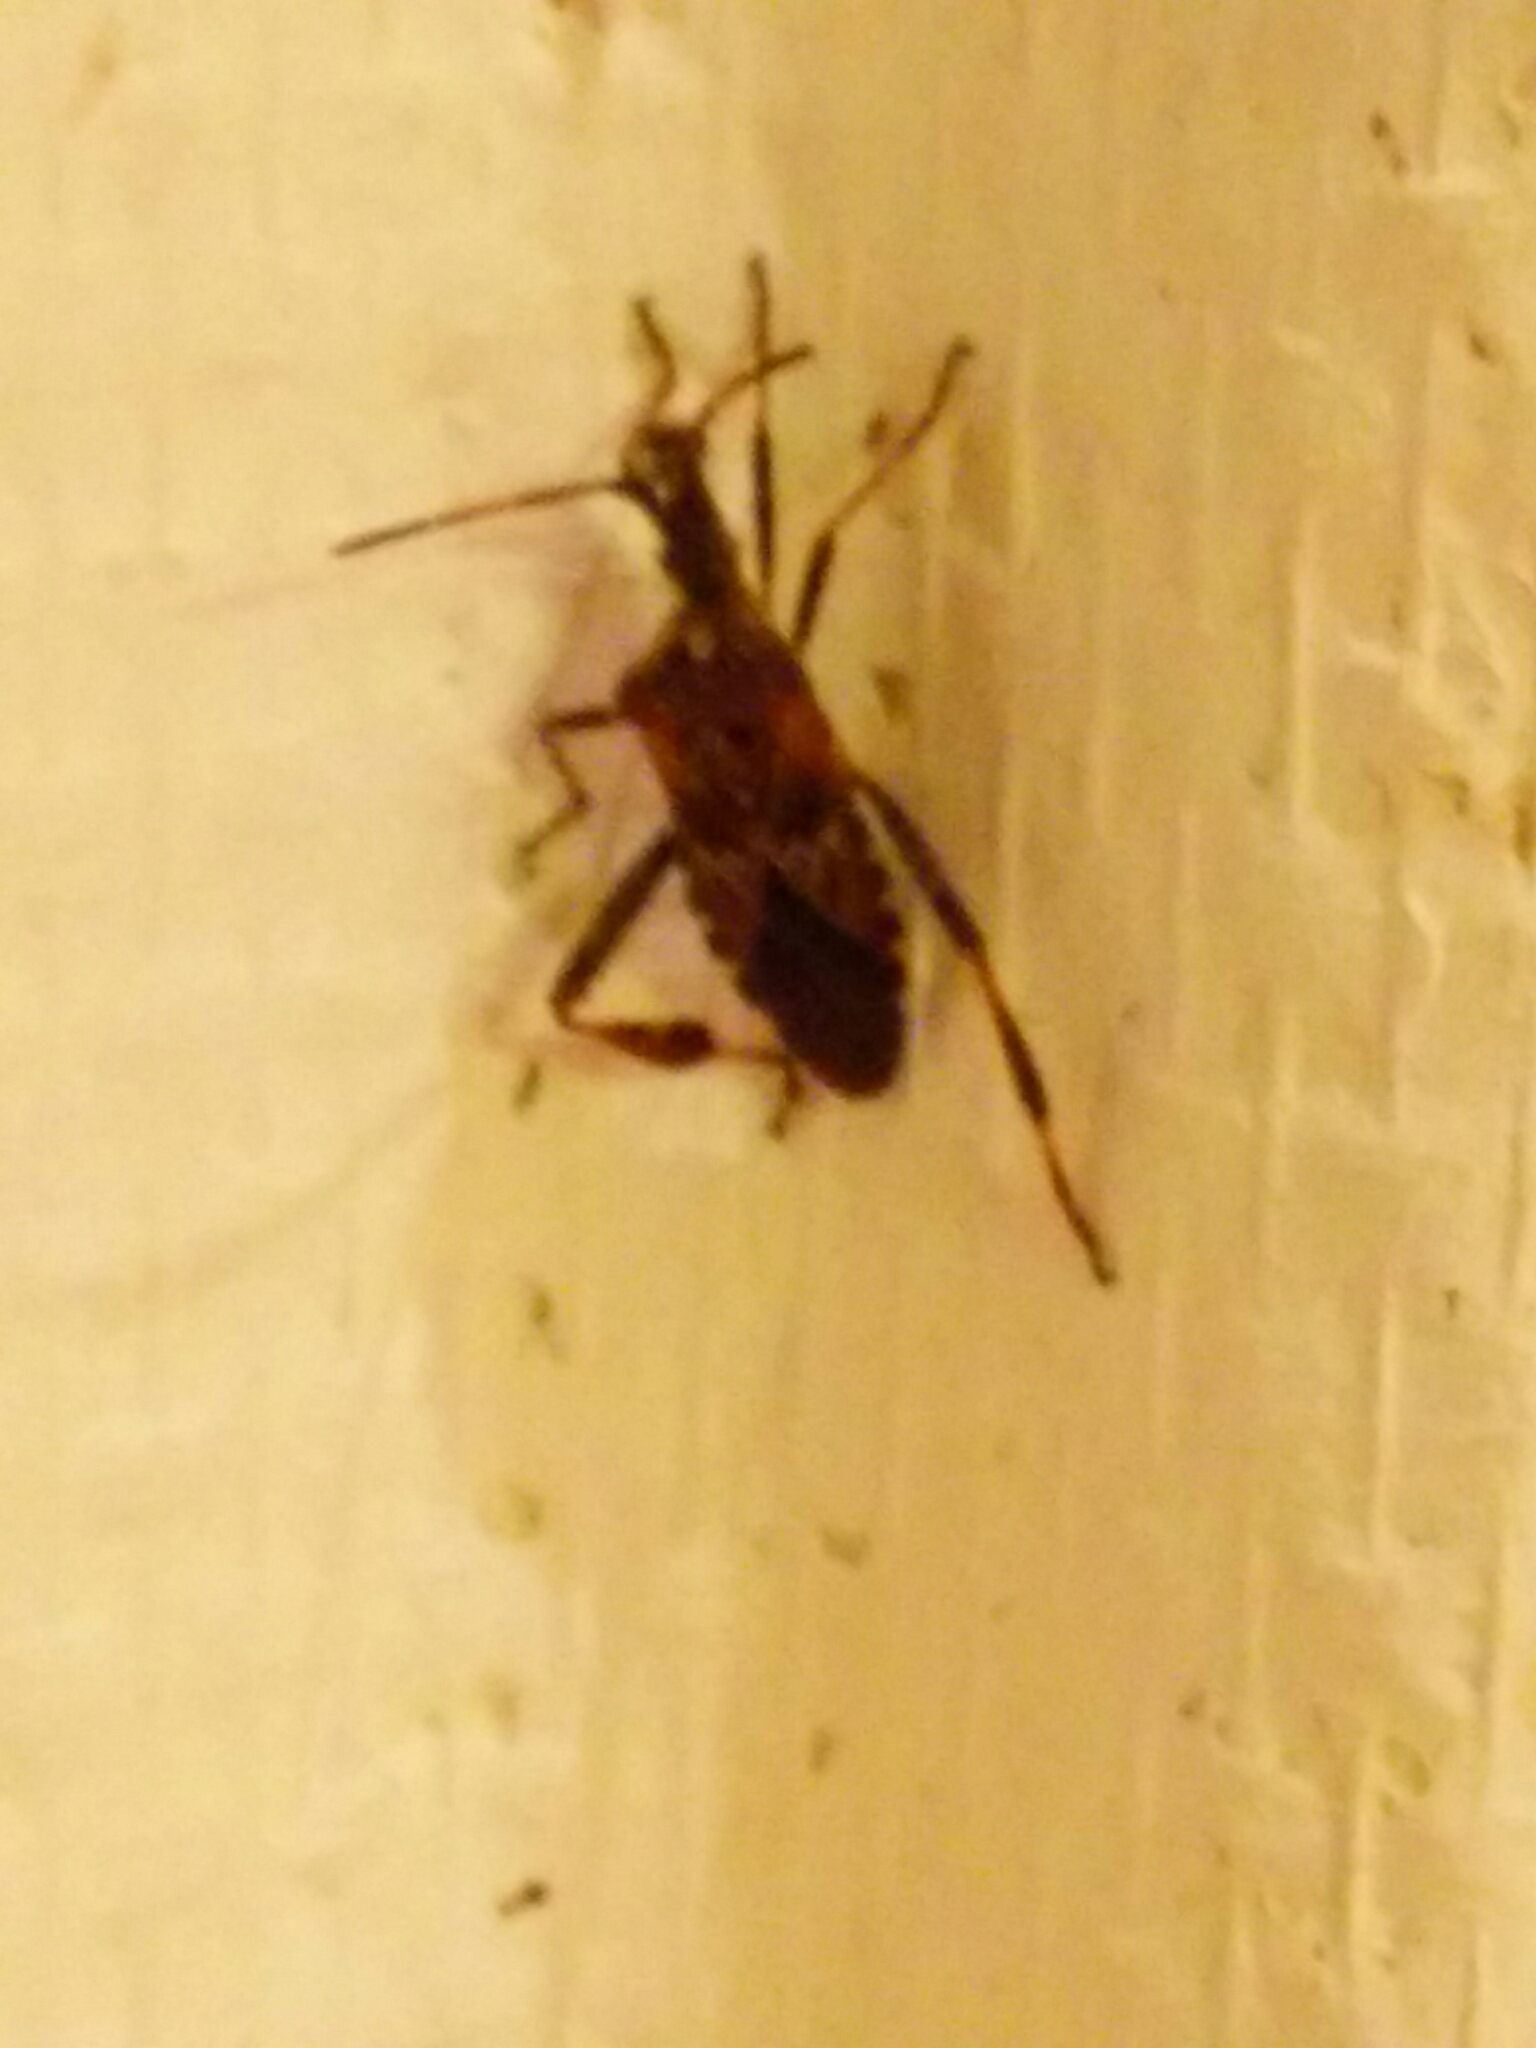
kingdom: Animalia
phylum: Arthropoda
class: Insecta
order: Hemiptera
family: Coreidae
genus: Leptoglossus
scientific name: Leptoglossus occidentalis
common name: Western conifer-seed bug
